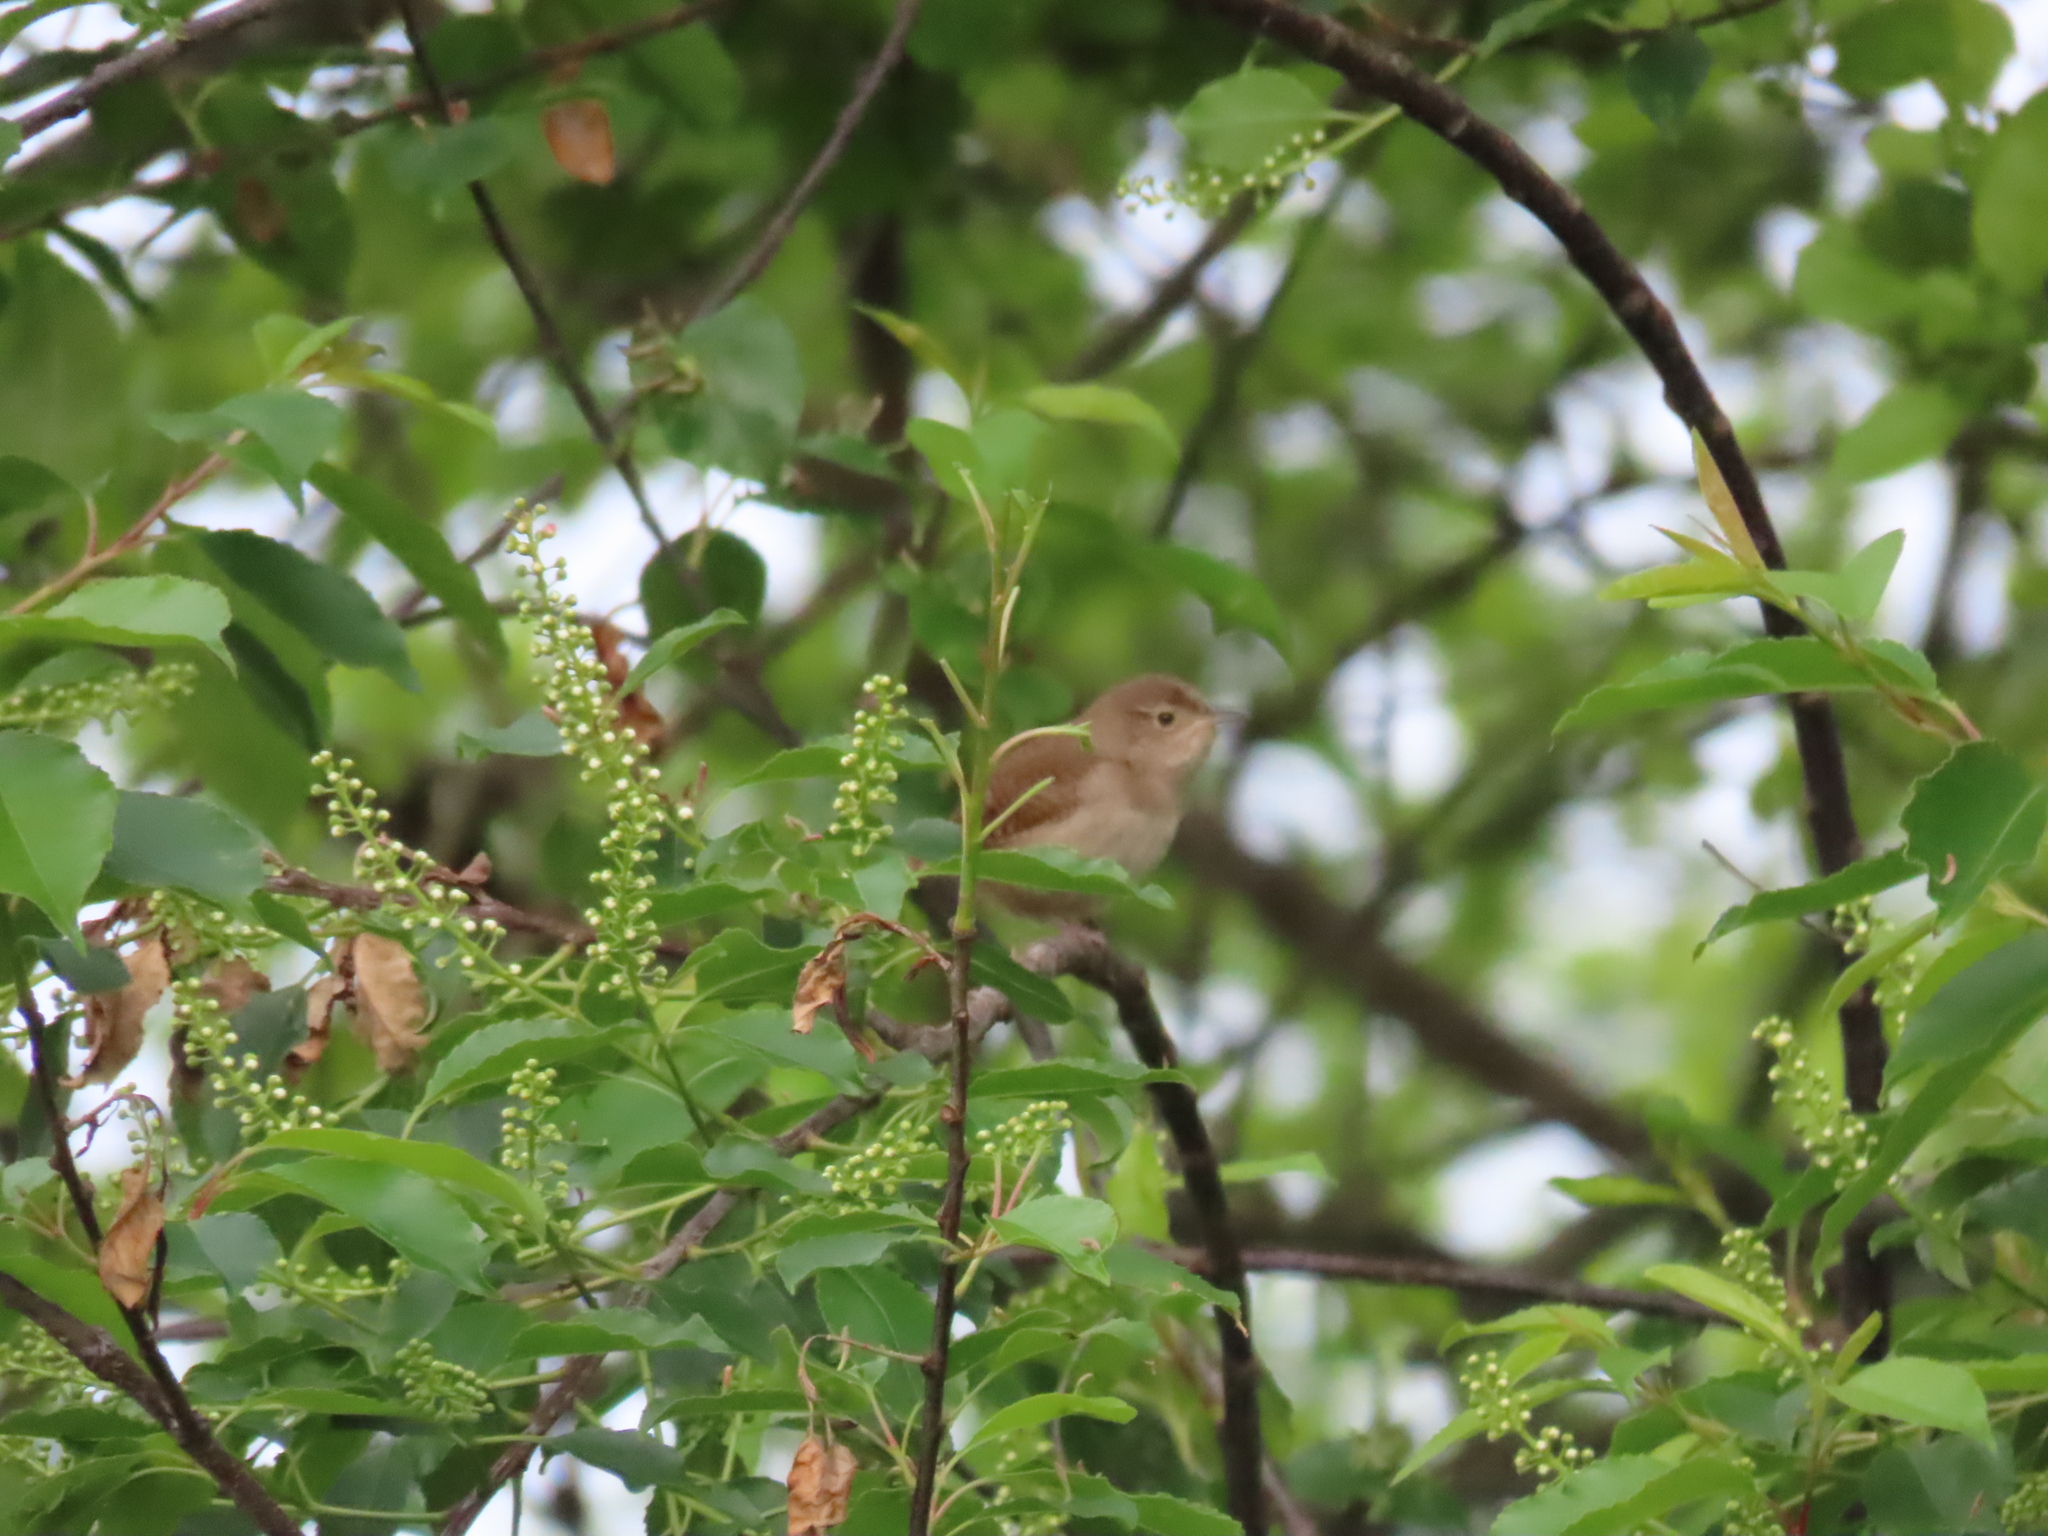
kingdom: Animalia
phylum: Chordata
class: Aves
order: Passeriformes
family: Troglodytidae
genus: Troglodytes
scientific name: Troglodytes aedon
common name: House wren
